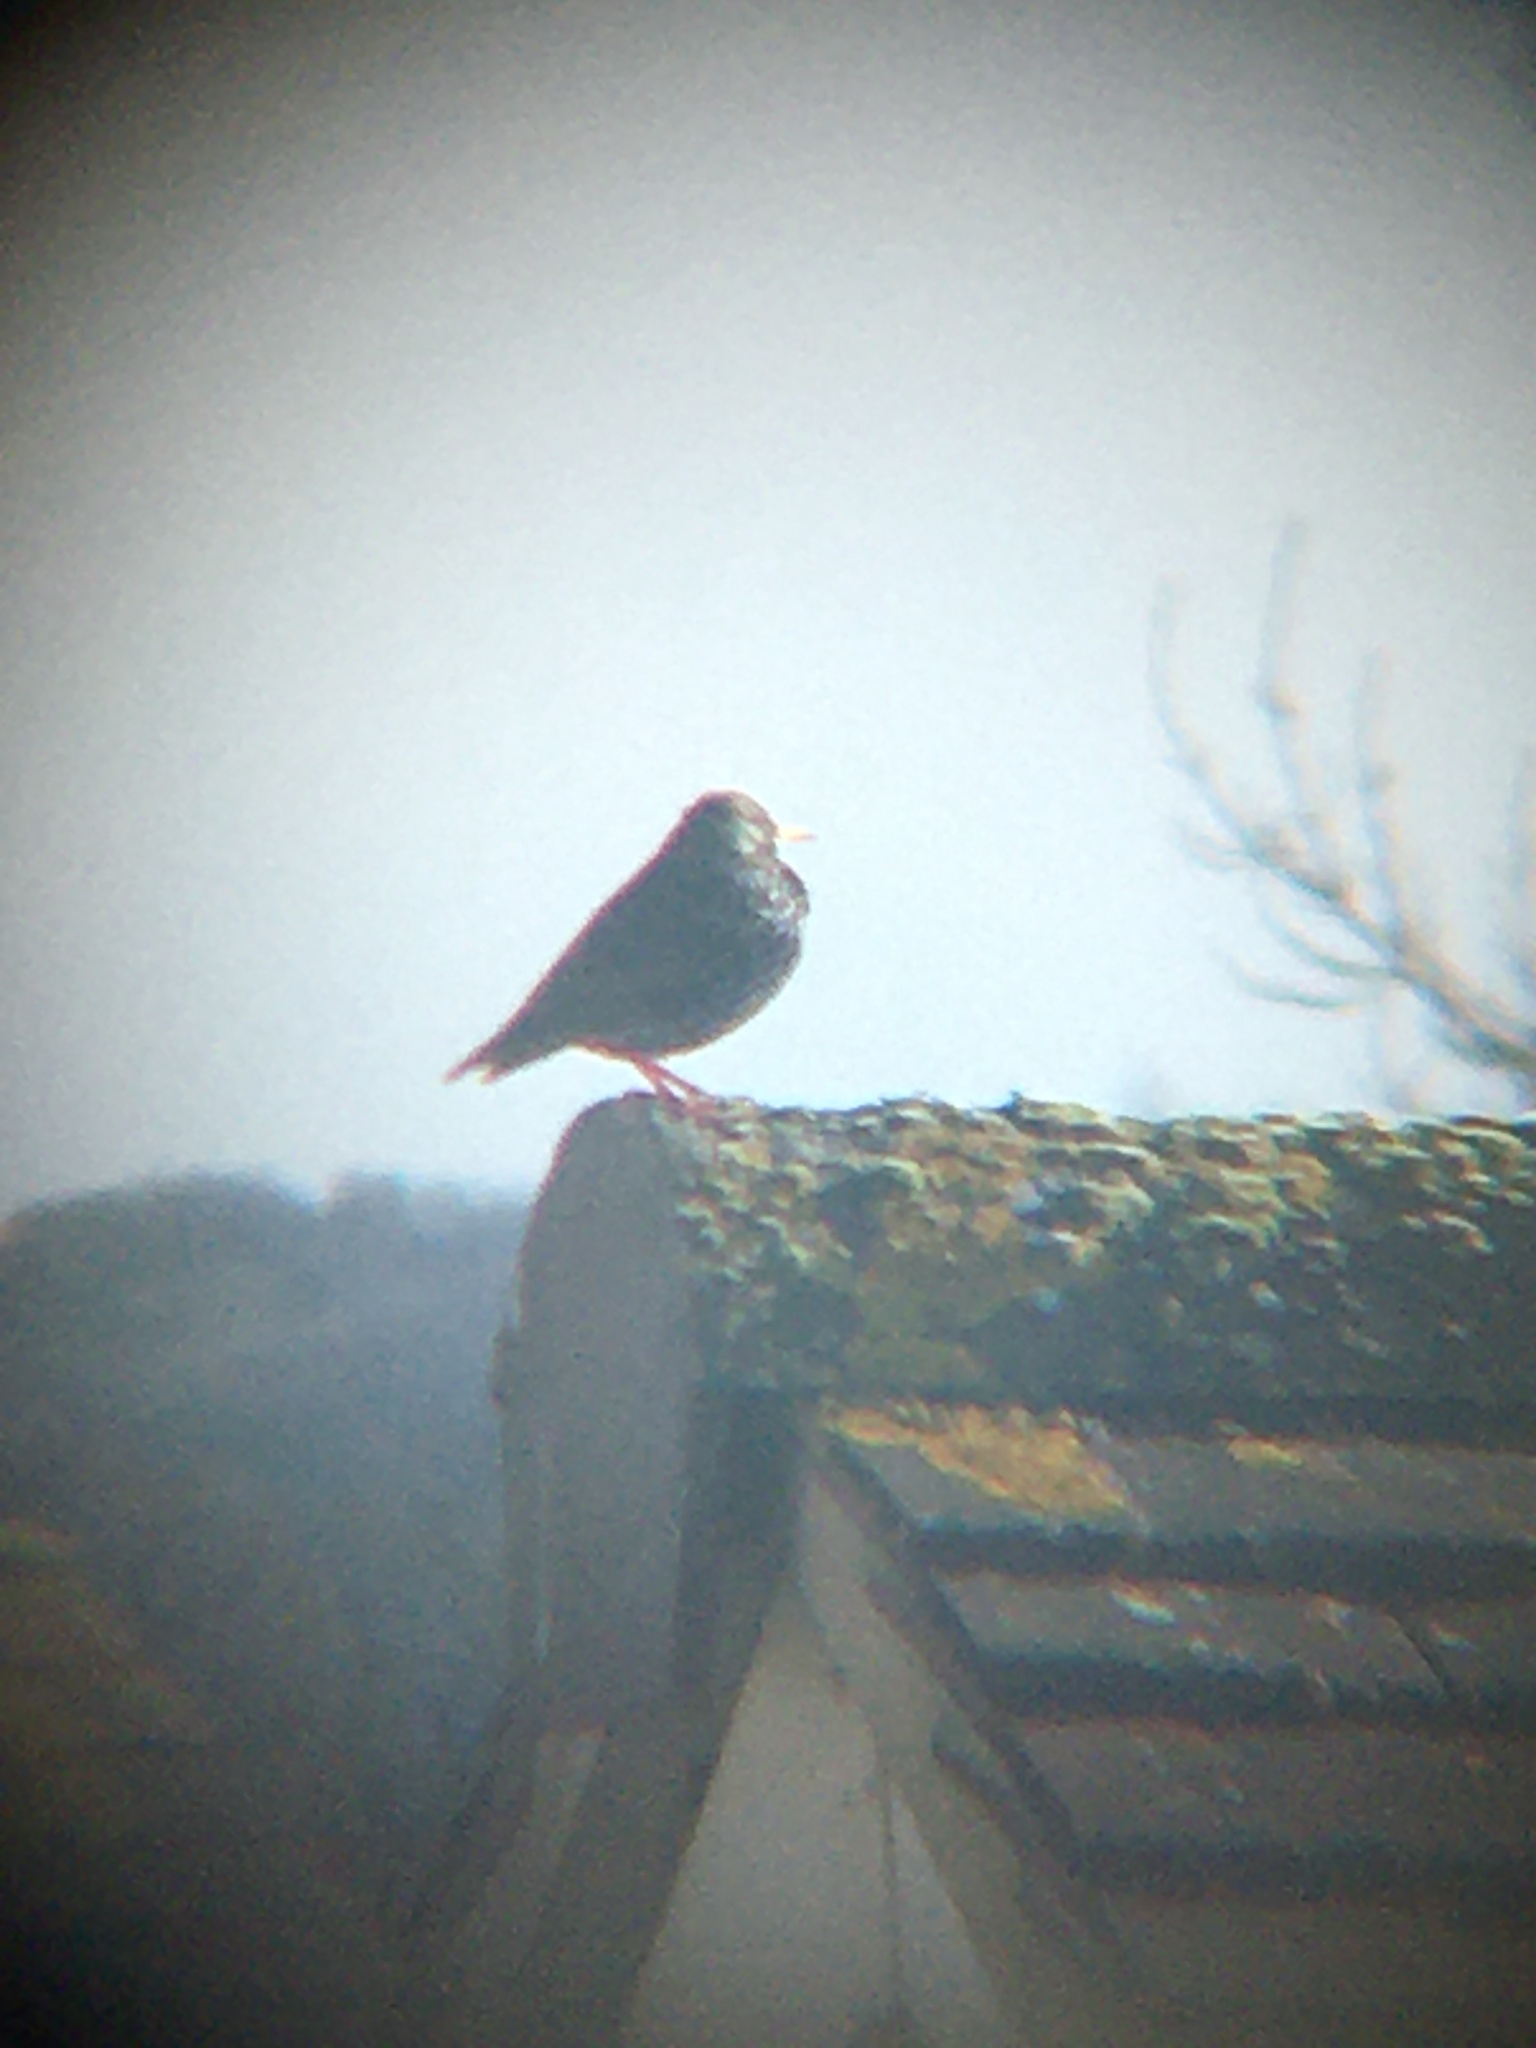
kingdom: Animalia
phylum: Chordata
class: Aves
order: Passeriformes
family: Sturnidae
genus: Sturnus
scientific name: Sturnus vulgaris
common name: Common starling
